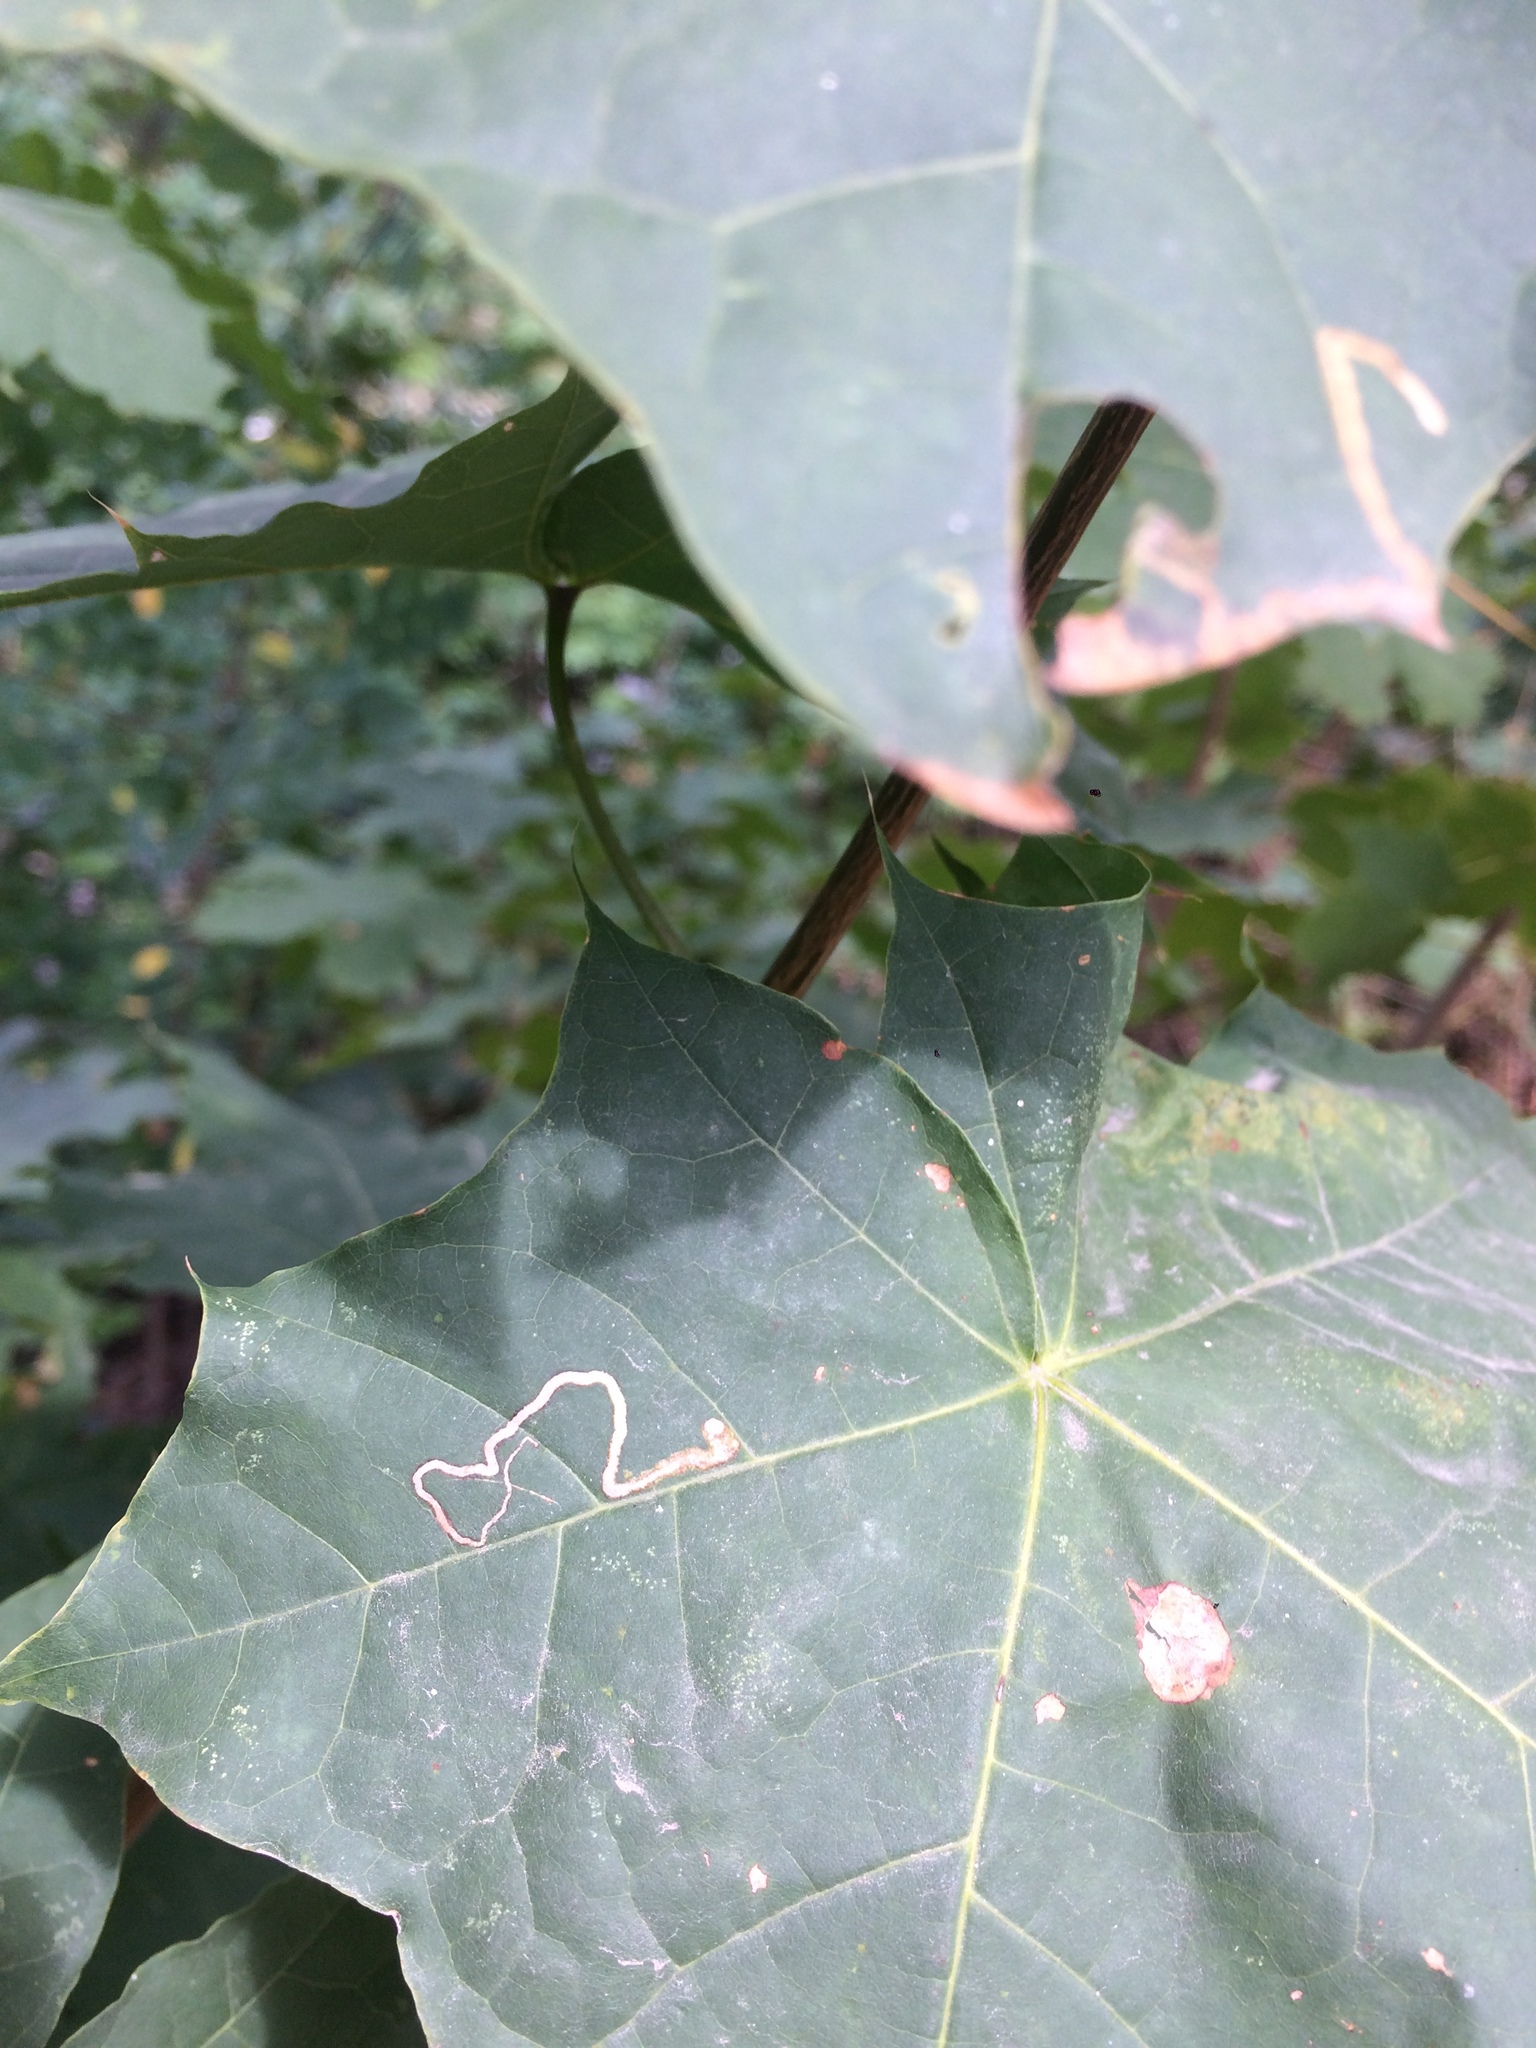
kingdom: Animalia
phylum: Arthropoda
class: Insecta
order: Lepidoptera
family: Nepticulidae
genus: Stigmella
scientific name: Stigmella aceris
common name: Scarce maple pigmy
